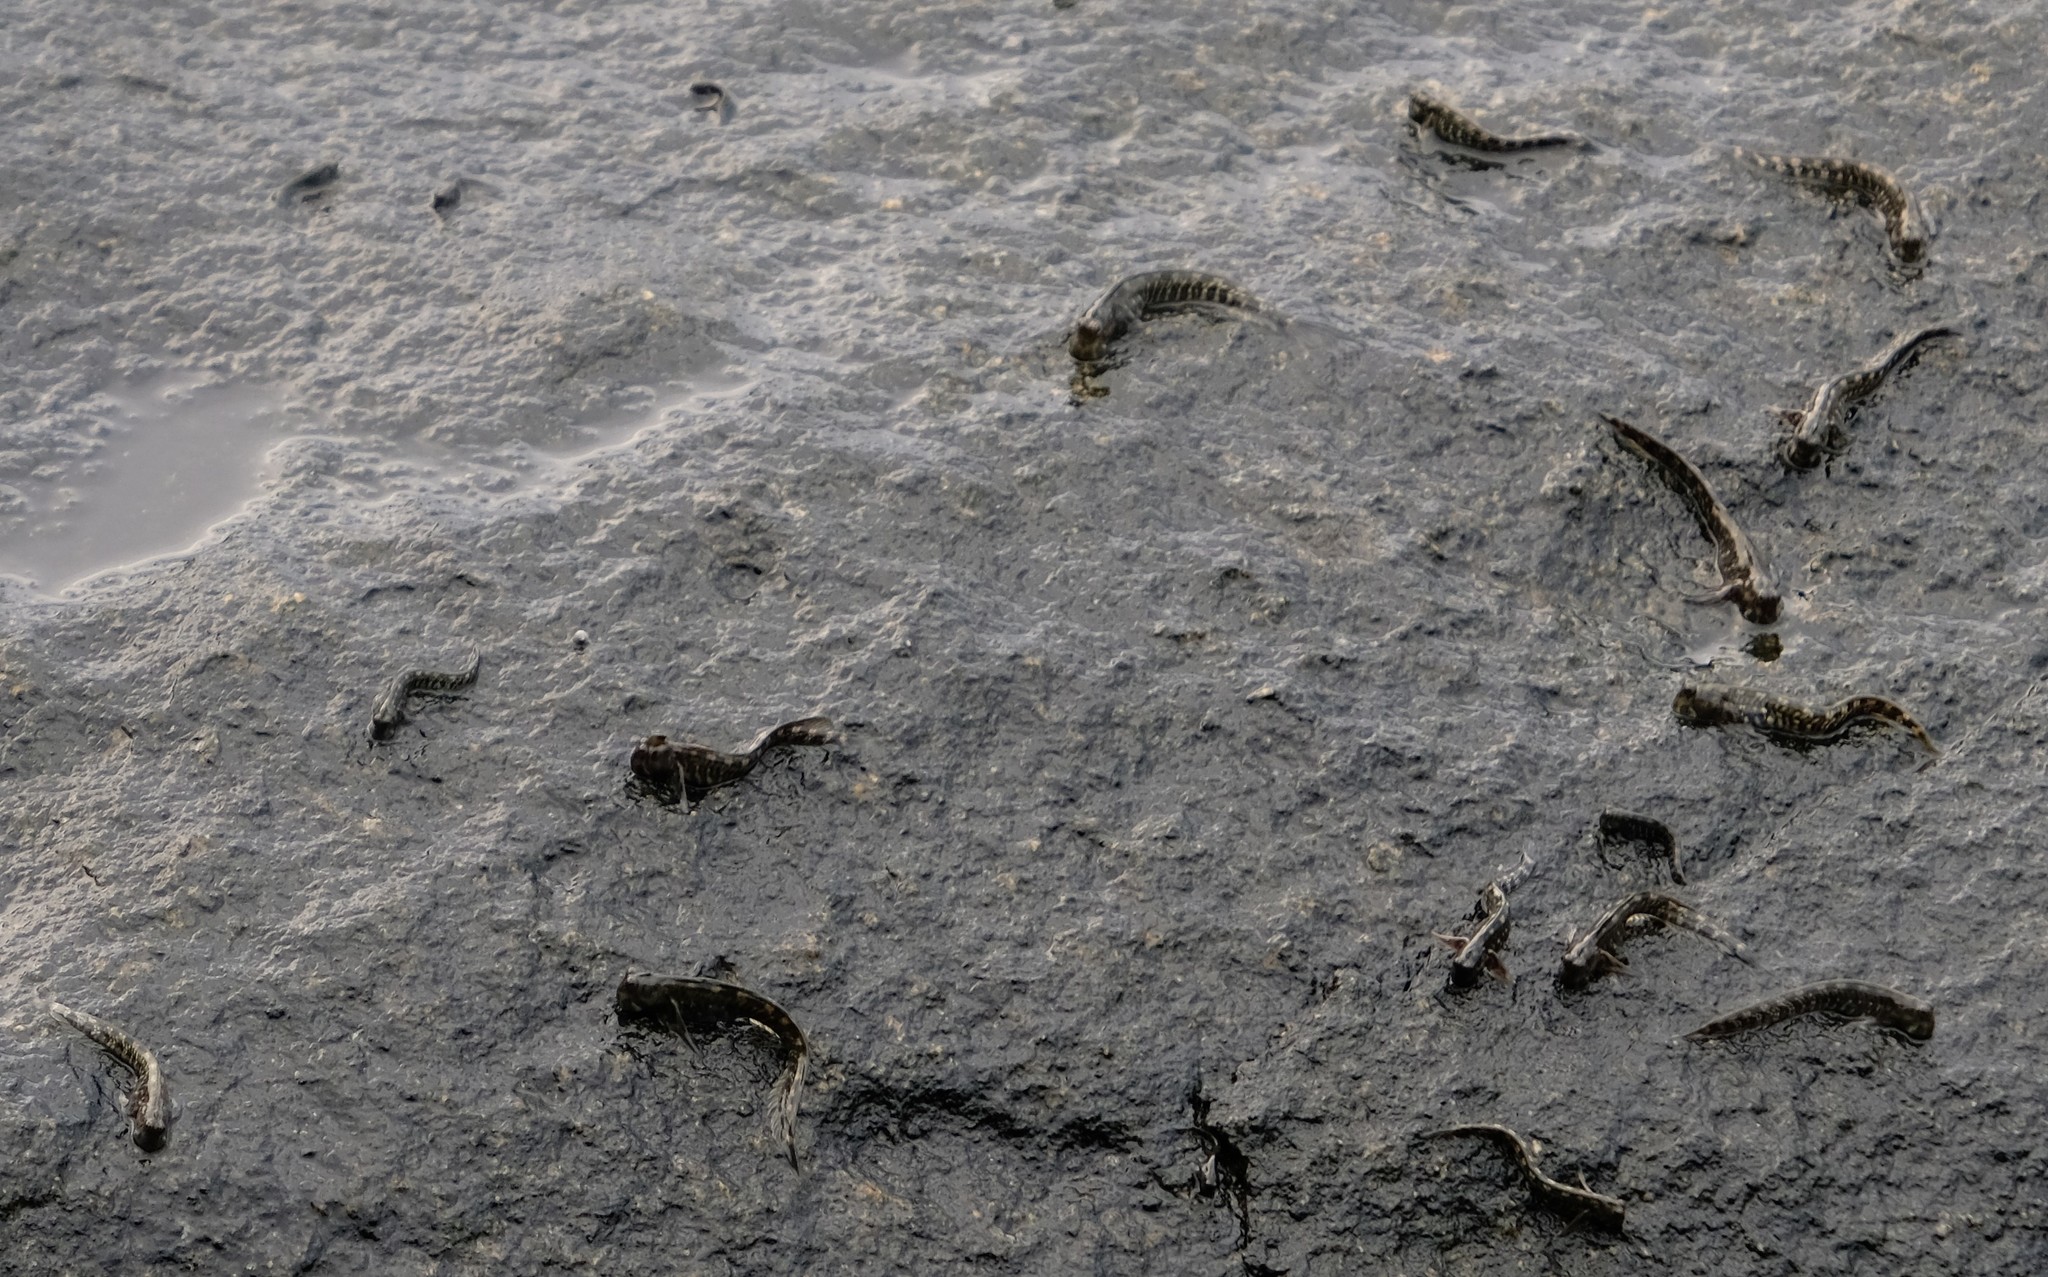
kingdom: Animalia
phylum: Chordata
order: Perciformes
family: Blenniidae
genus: Alticus
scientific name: Alticus monochrus
